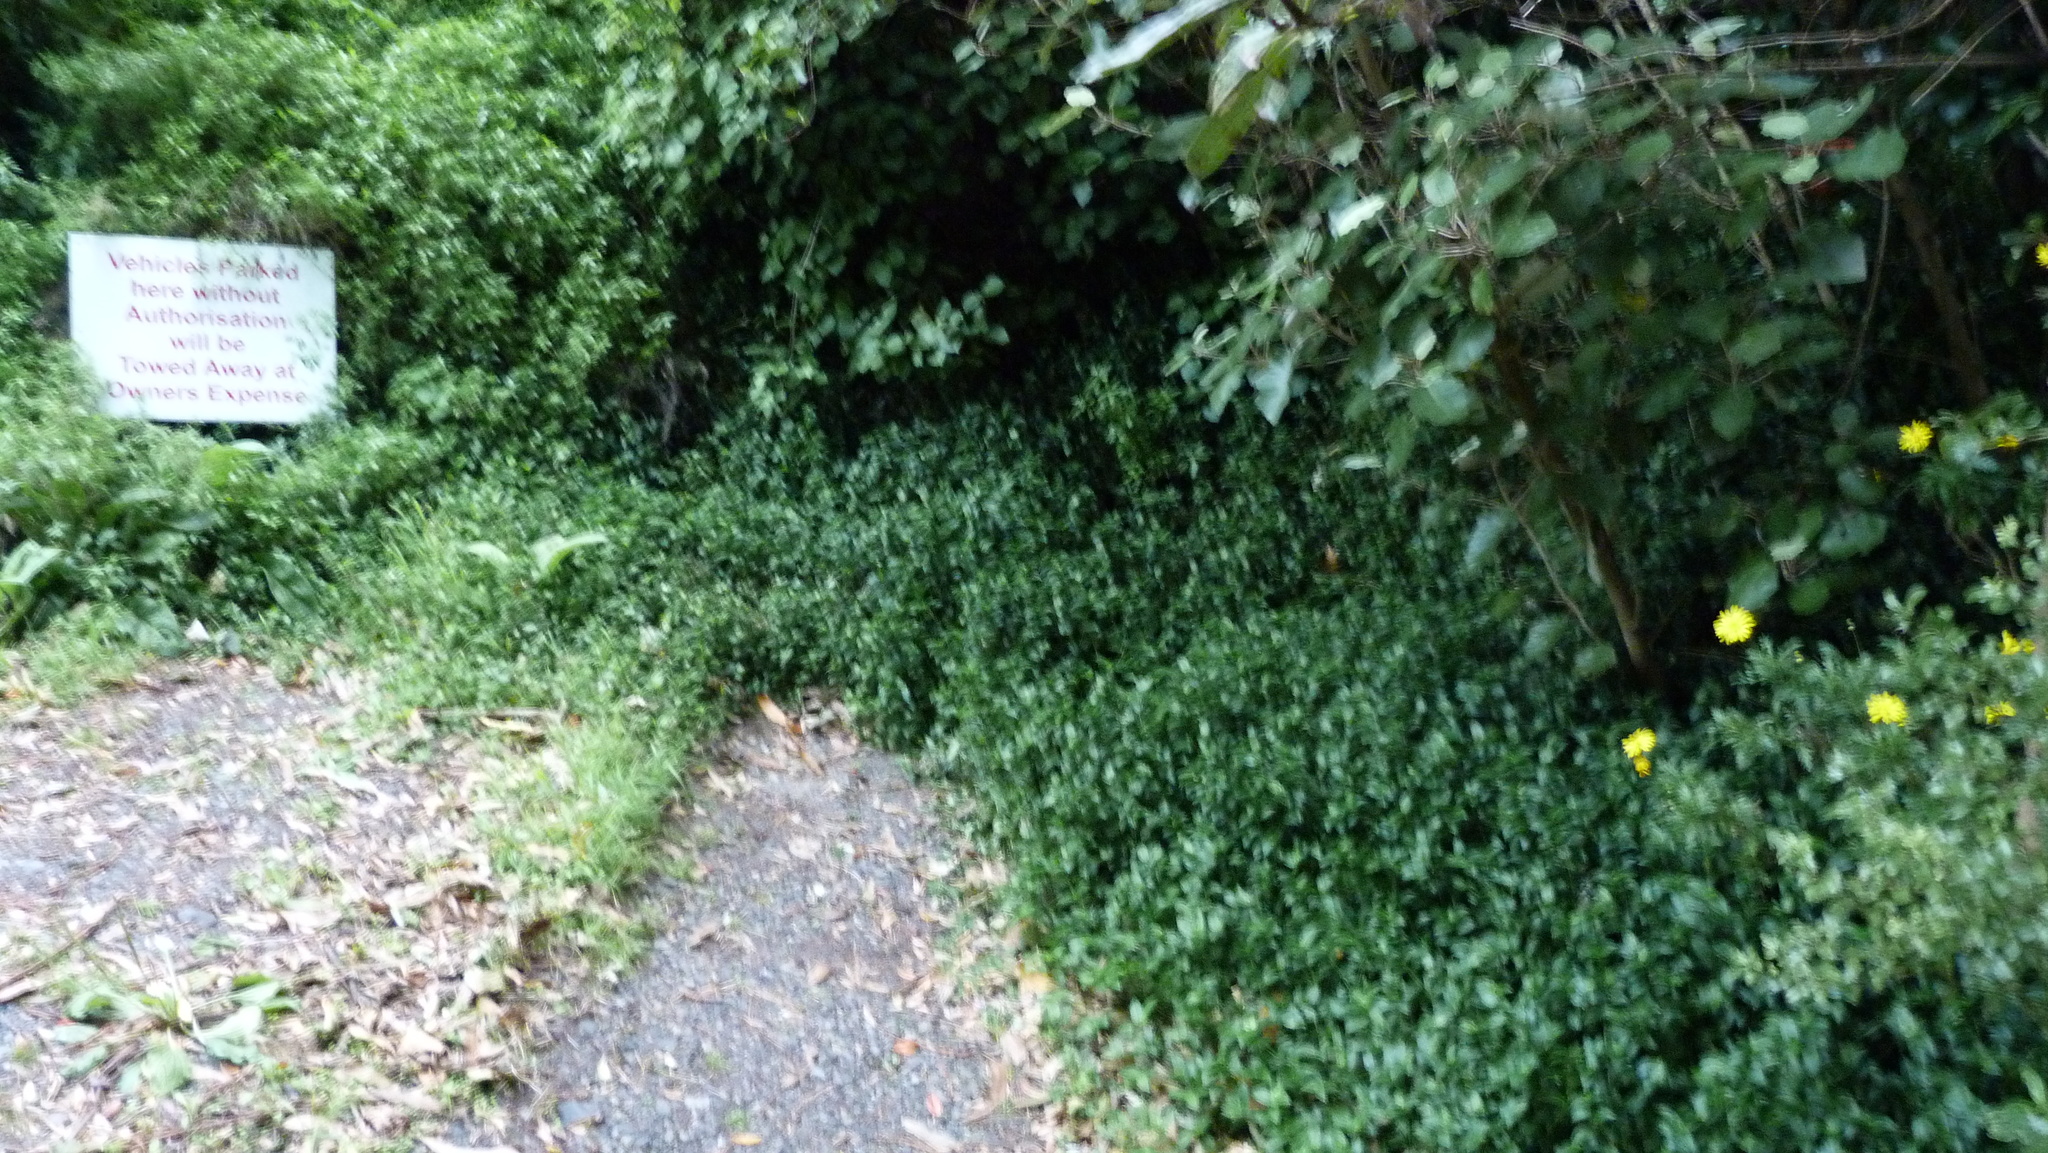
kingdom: Plantae
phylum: Tracheophyta
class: Liliopsida
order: Commelinales
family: Commelinaceae
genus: Tradescantia
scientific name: Tradescantia fluminensis
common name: Wandering-jew
